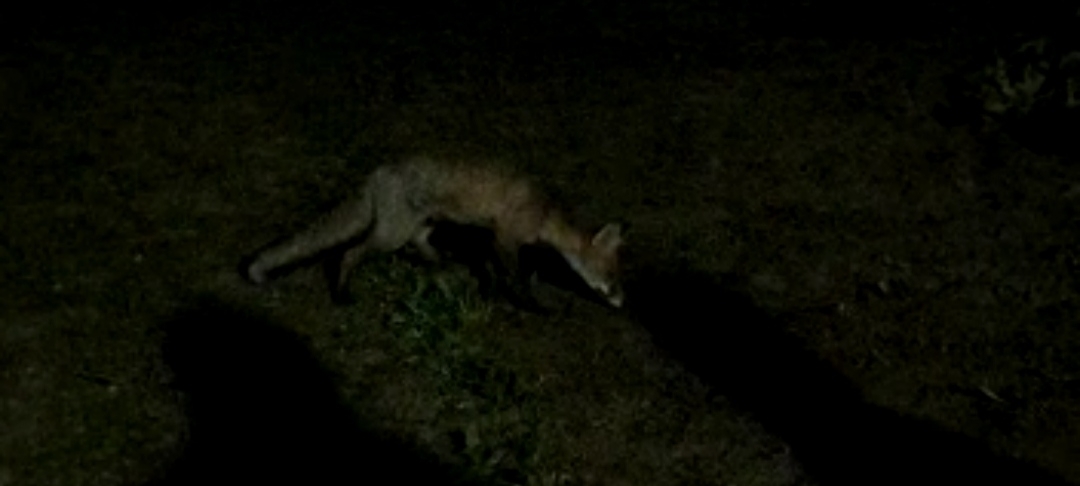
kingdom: Animalia
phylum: Chordata
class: Mammalia
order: Carnivora
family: Canidae
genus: Vulpes
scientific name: Vulpes vulpes
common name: Red fox
